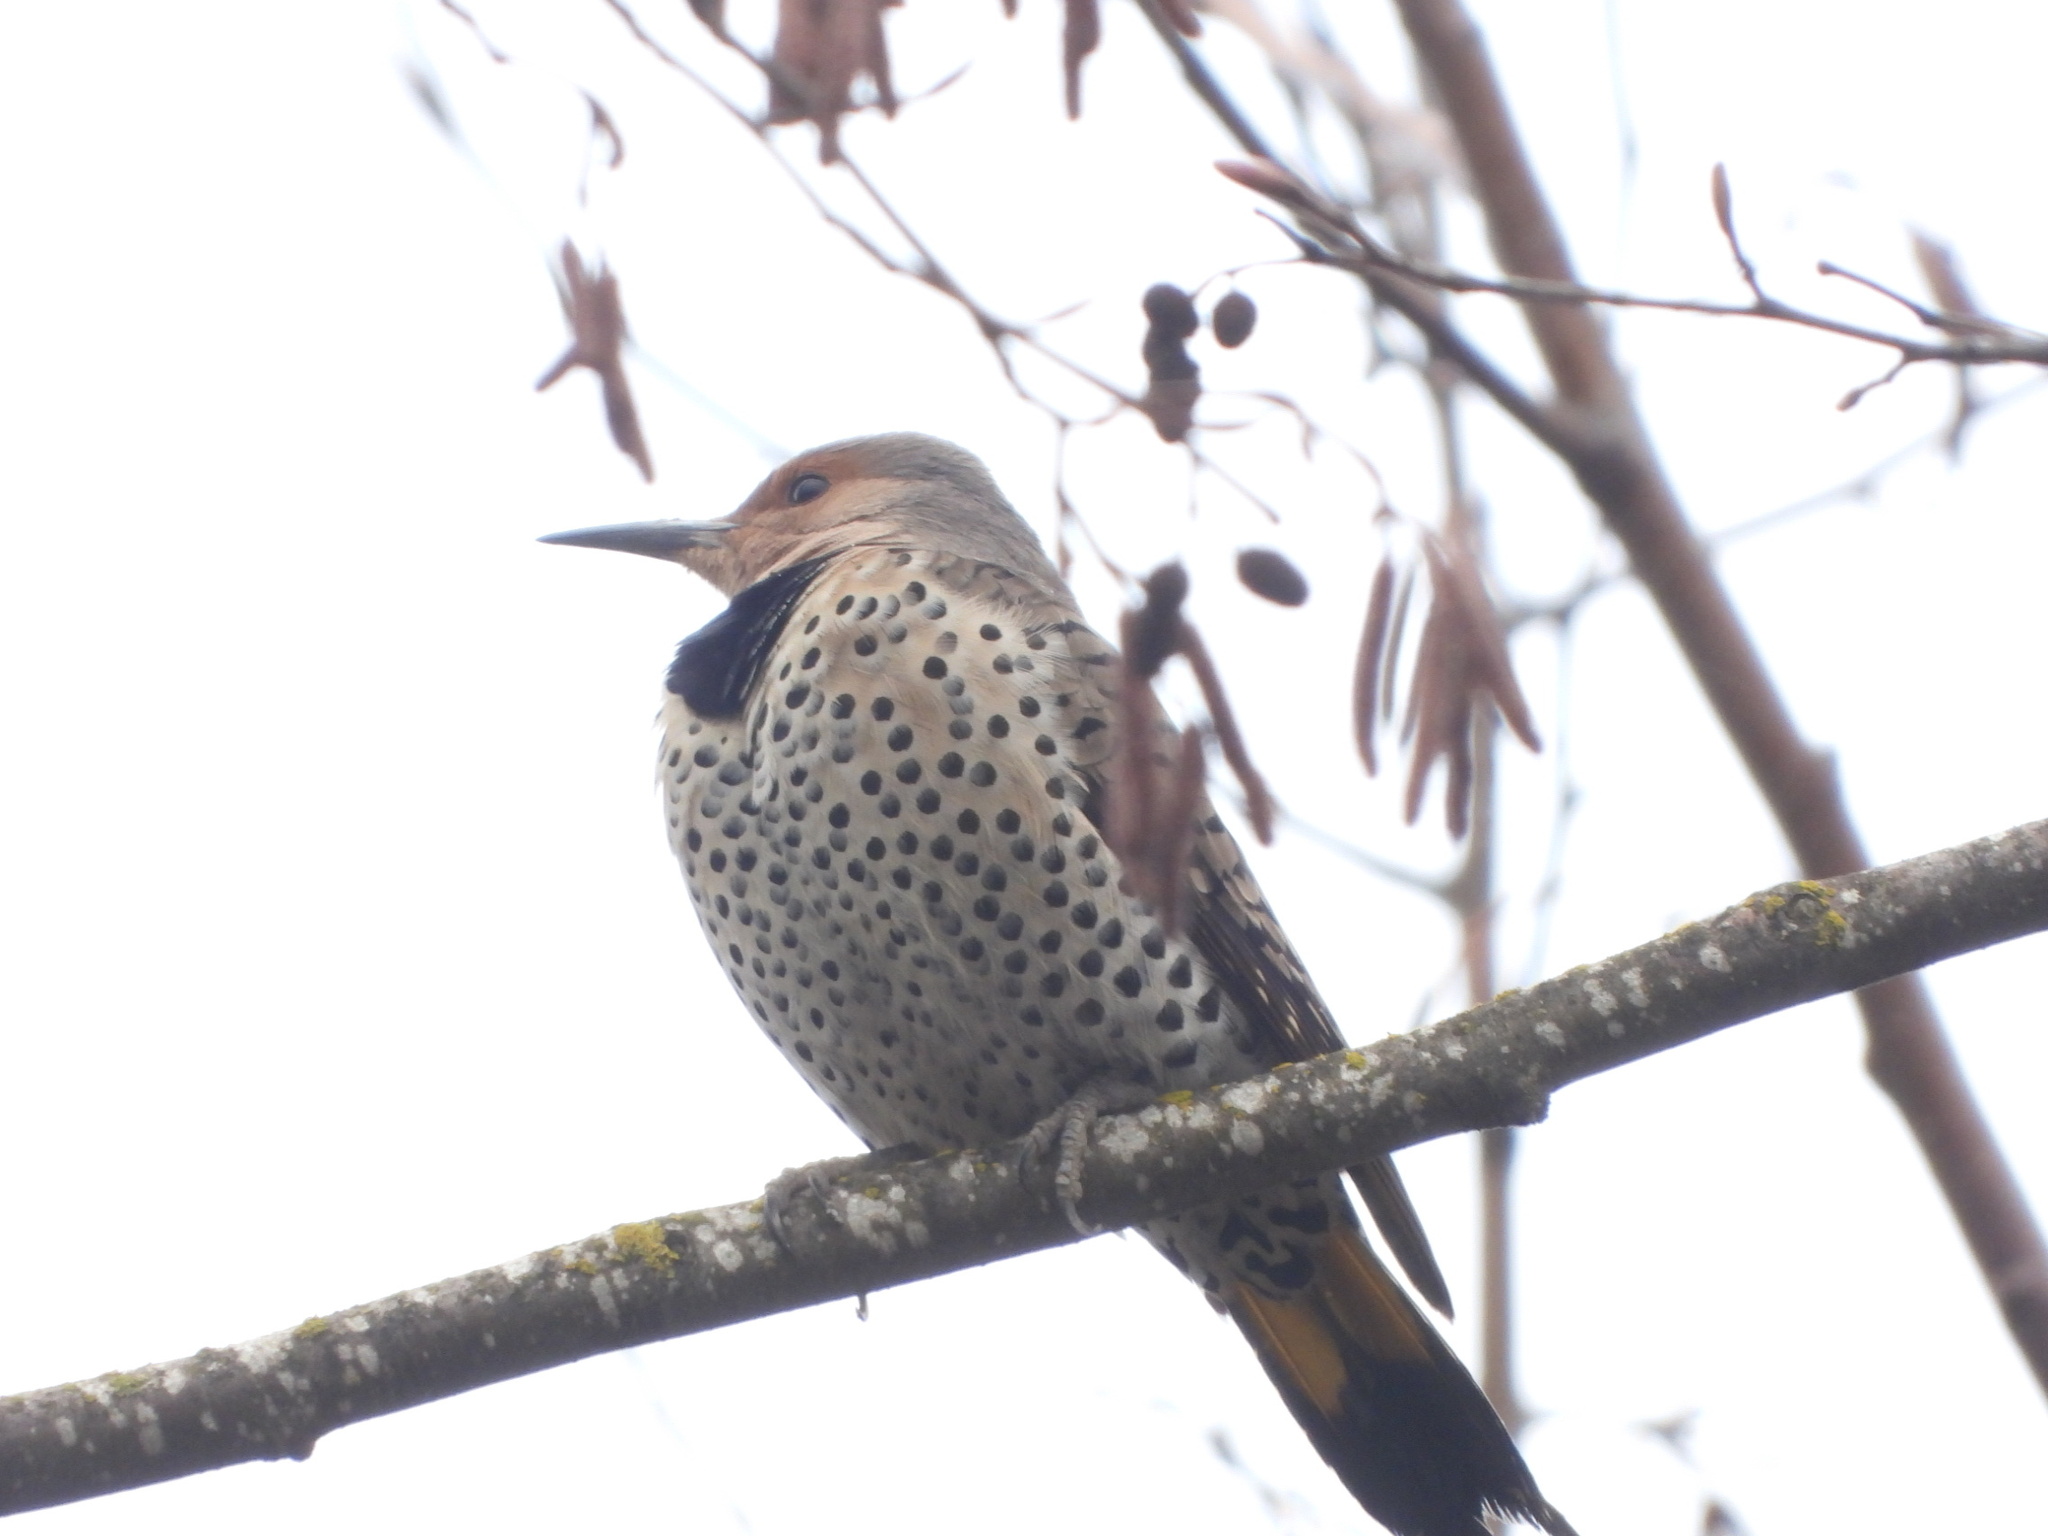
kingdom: Animalia
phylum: Chordata
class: Aves
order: Piciformes
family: Picidae
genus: Colaptes
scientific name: Colaptes
